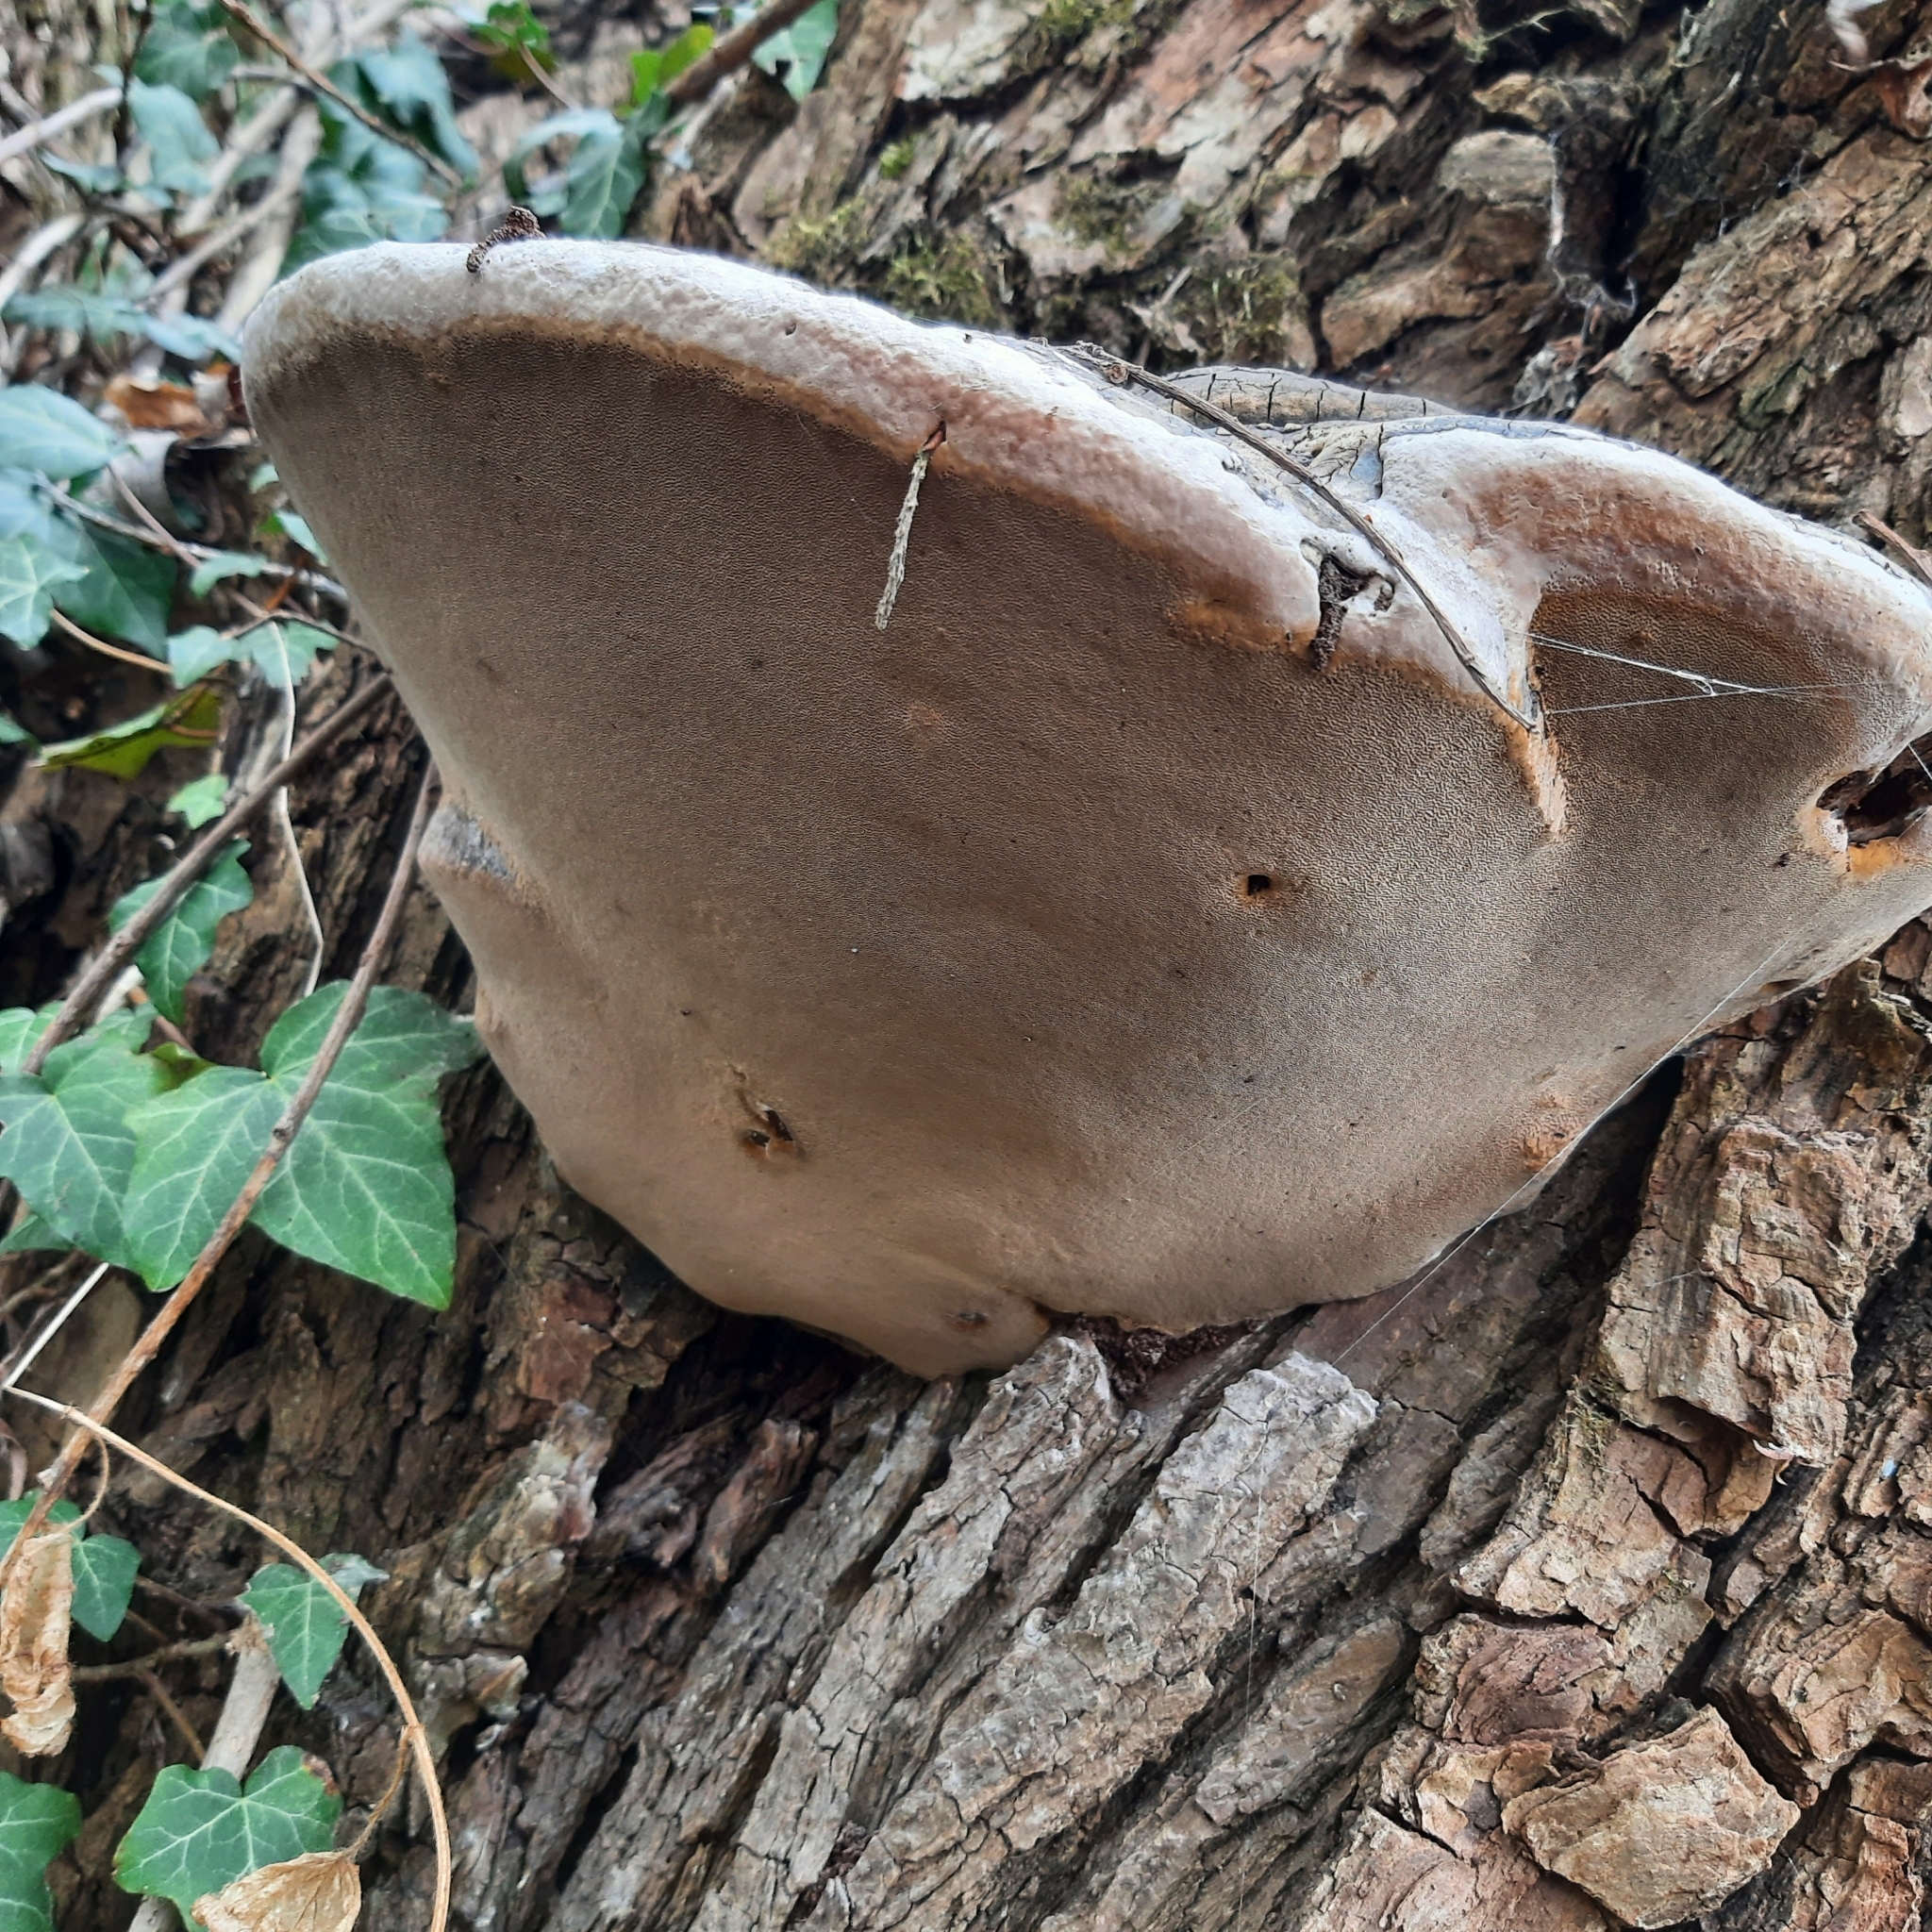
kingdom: Fungi
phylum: Basidiomycota
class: Agaricomycetes
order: Hymenochaetales
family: Hymenochaetaceae
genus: Phellinus
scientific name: Phellinus igniarius
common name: Willow bracket
